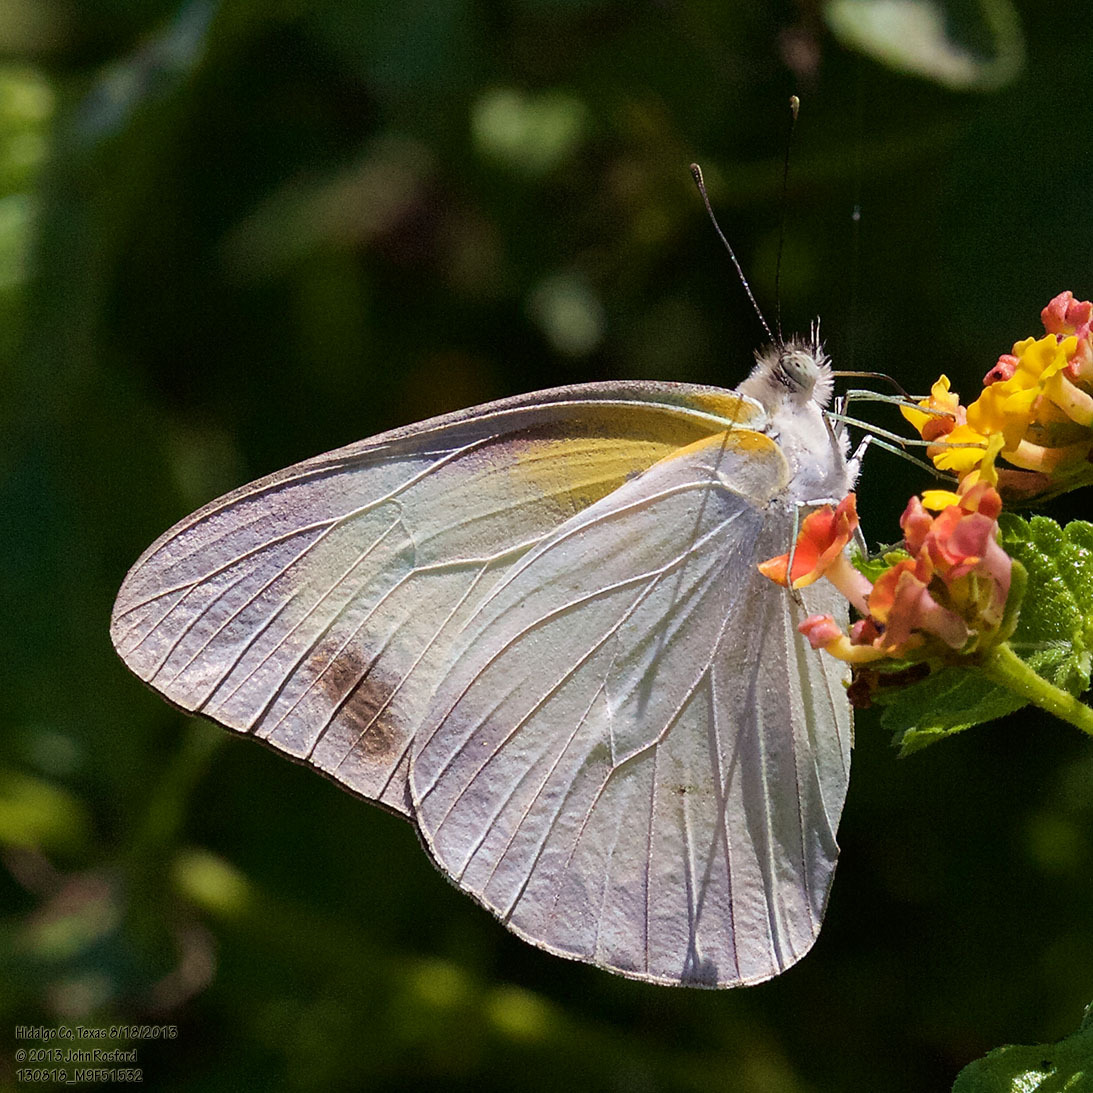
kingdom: Animalia
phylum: Arthropoda
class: Insecta
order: Lepidoptera
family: Pieridae
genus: Glutophrissa
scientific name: Glutophrissa drusilla
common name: Florida white
